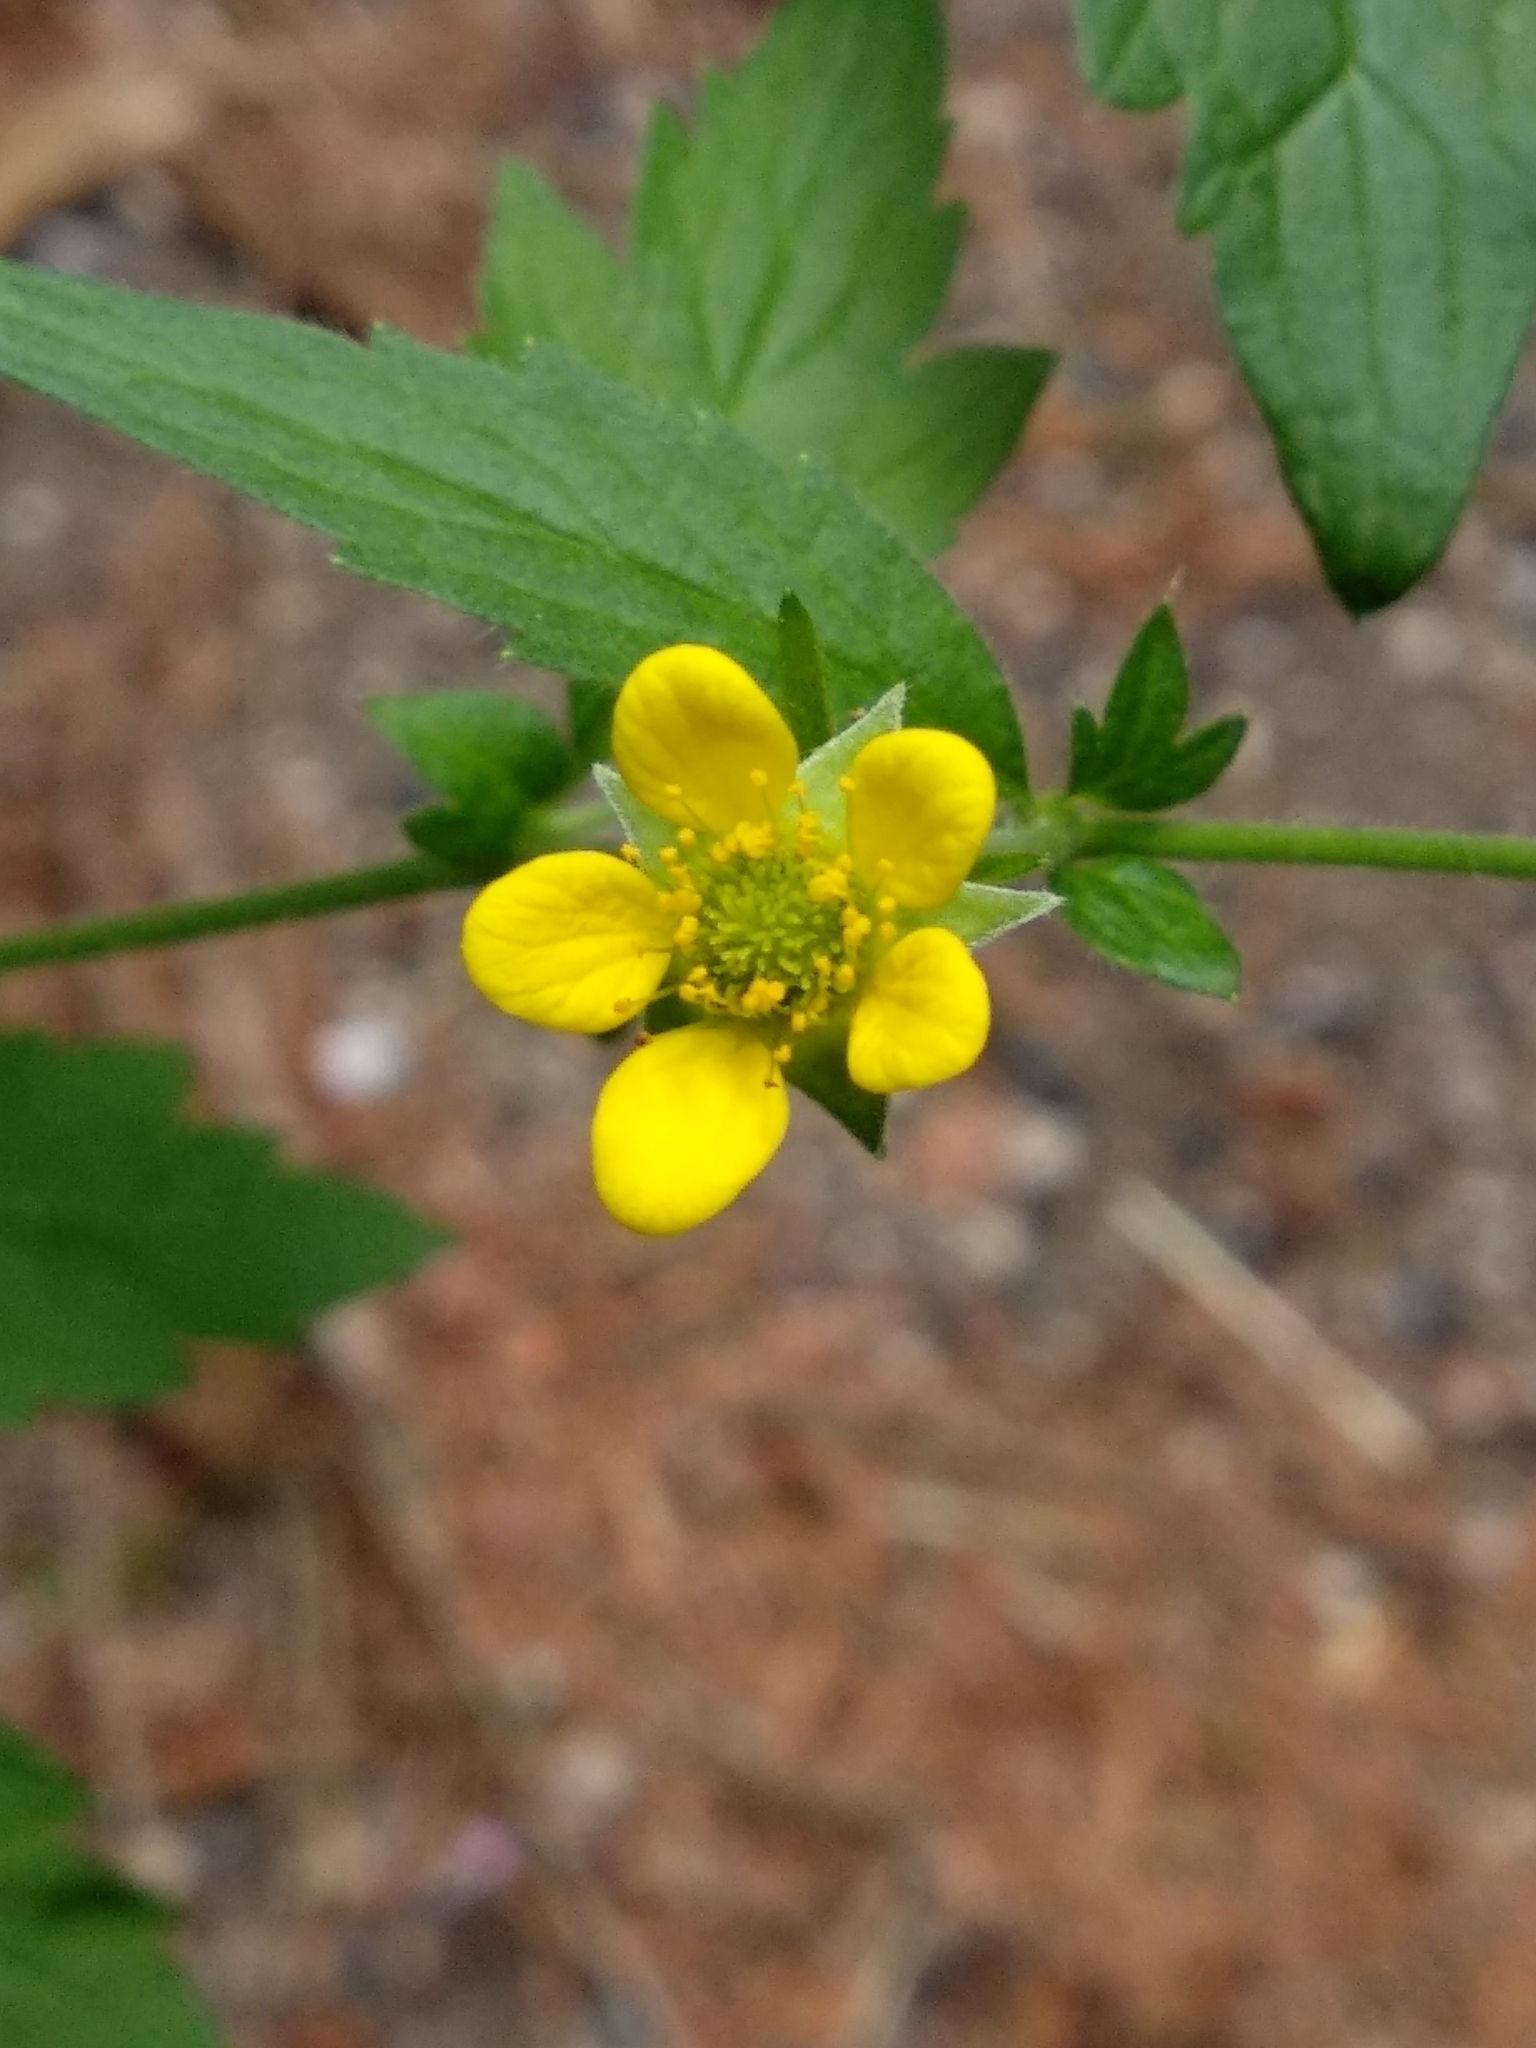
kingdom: Plantae
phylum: Tracheophyta
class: Magnoliopsida
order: Rosales
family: Rosaceae
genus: Geum
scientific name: Geum urbanum
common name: Wood avens
